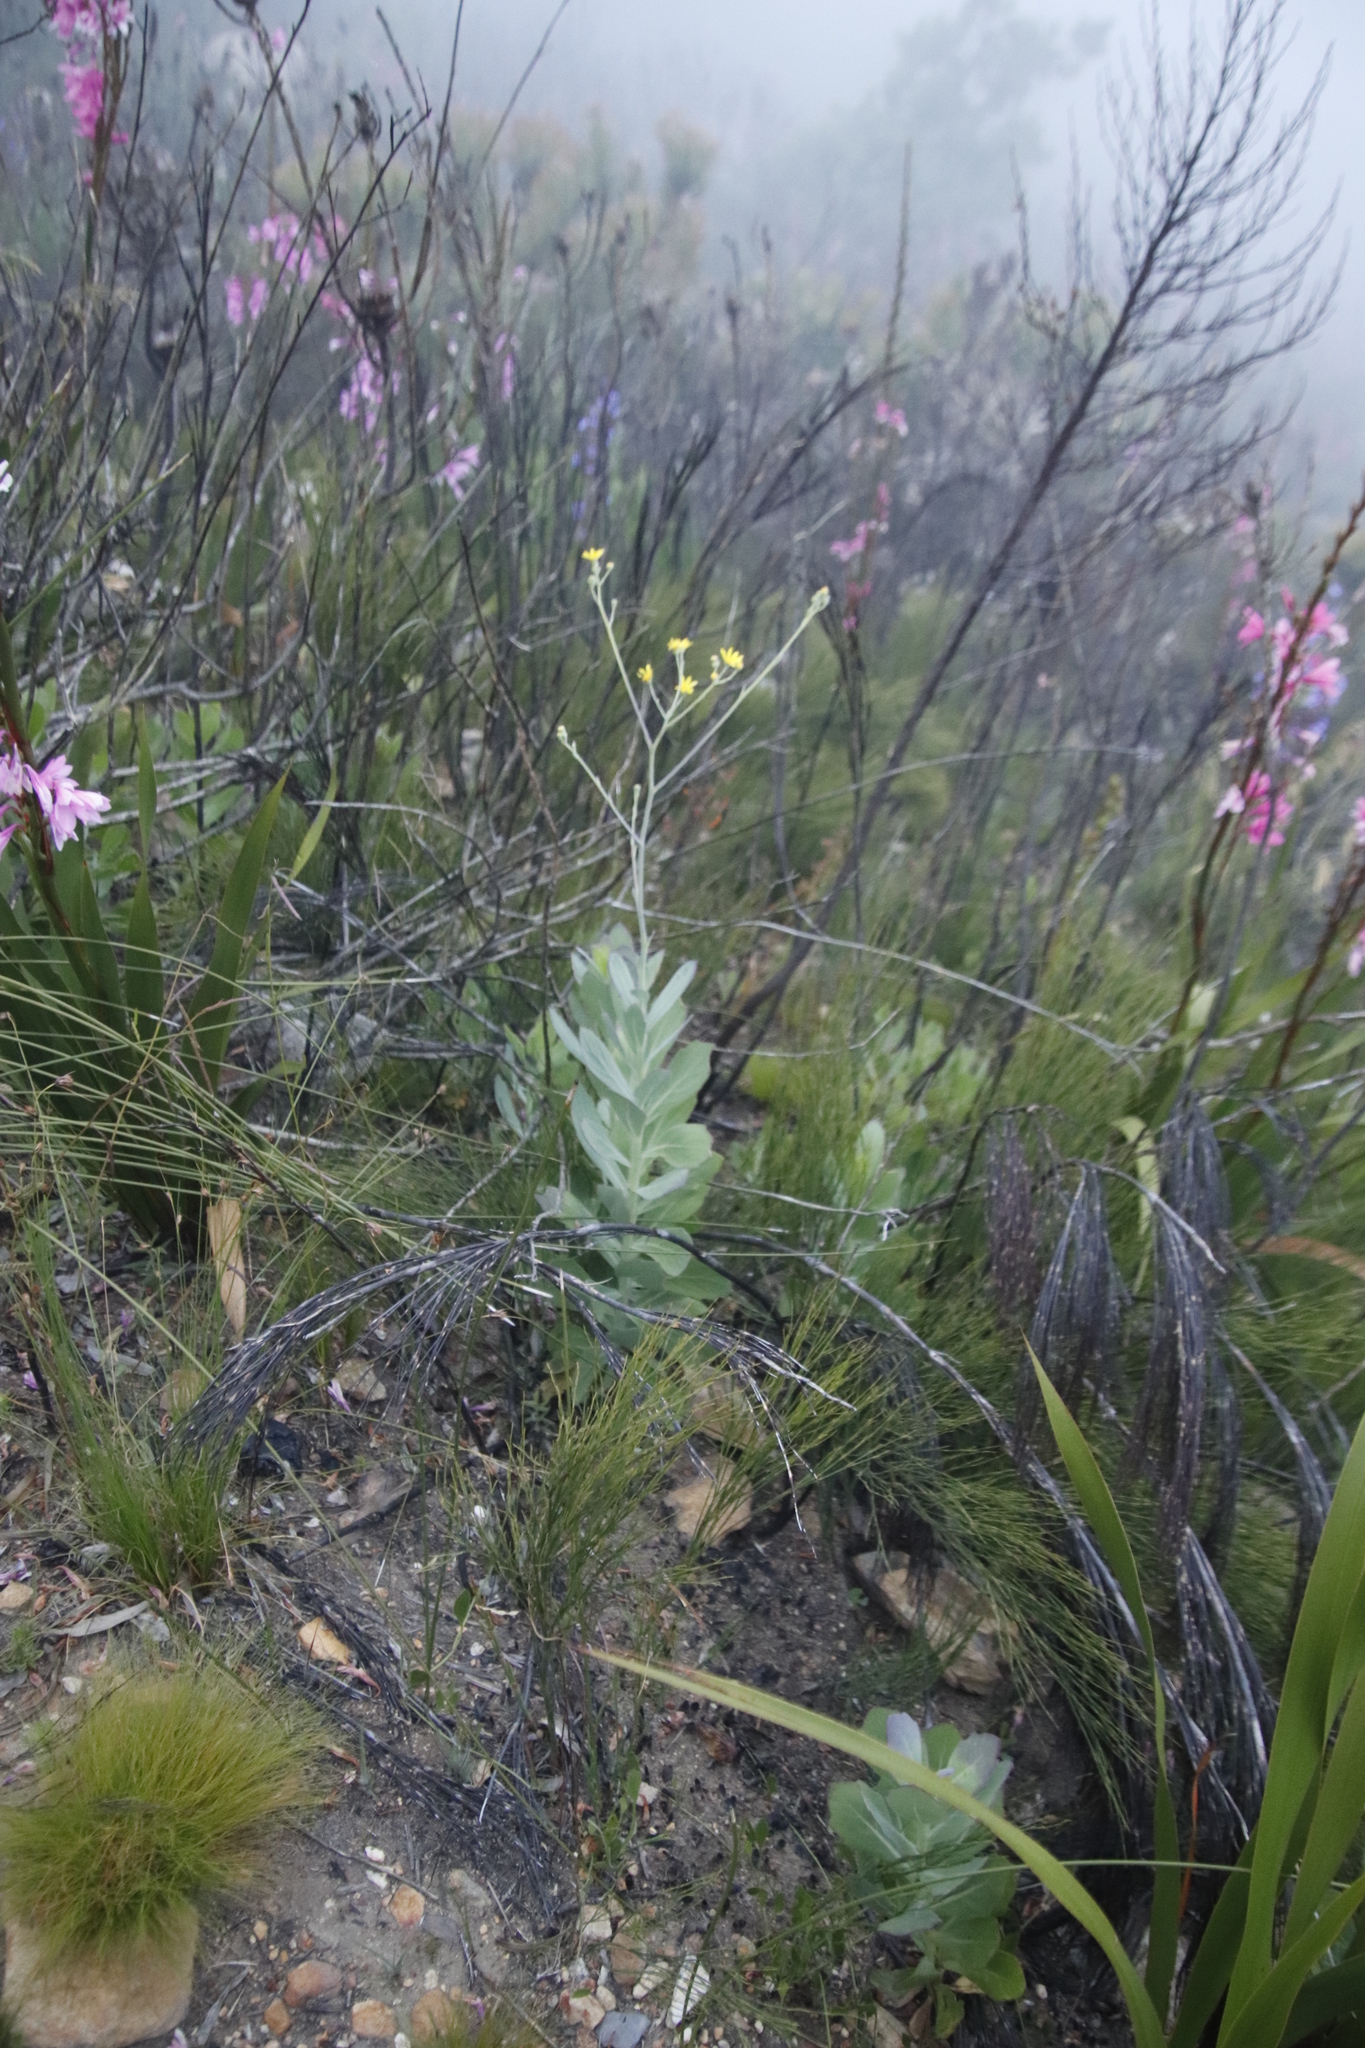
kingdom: Plantae
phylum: Tracheophyta
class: Magnoliopsida
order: Asterales
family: Asteraceae
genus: Othonna
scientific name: Othonna quinquedentata
